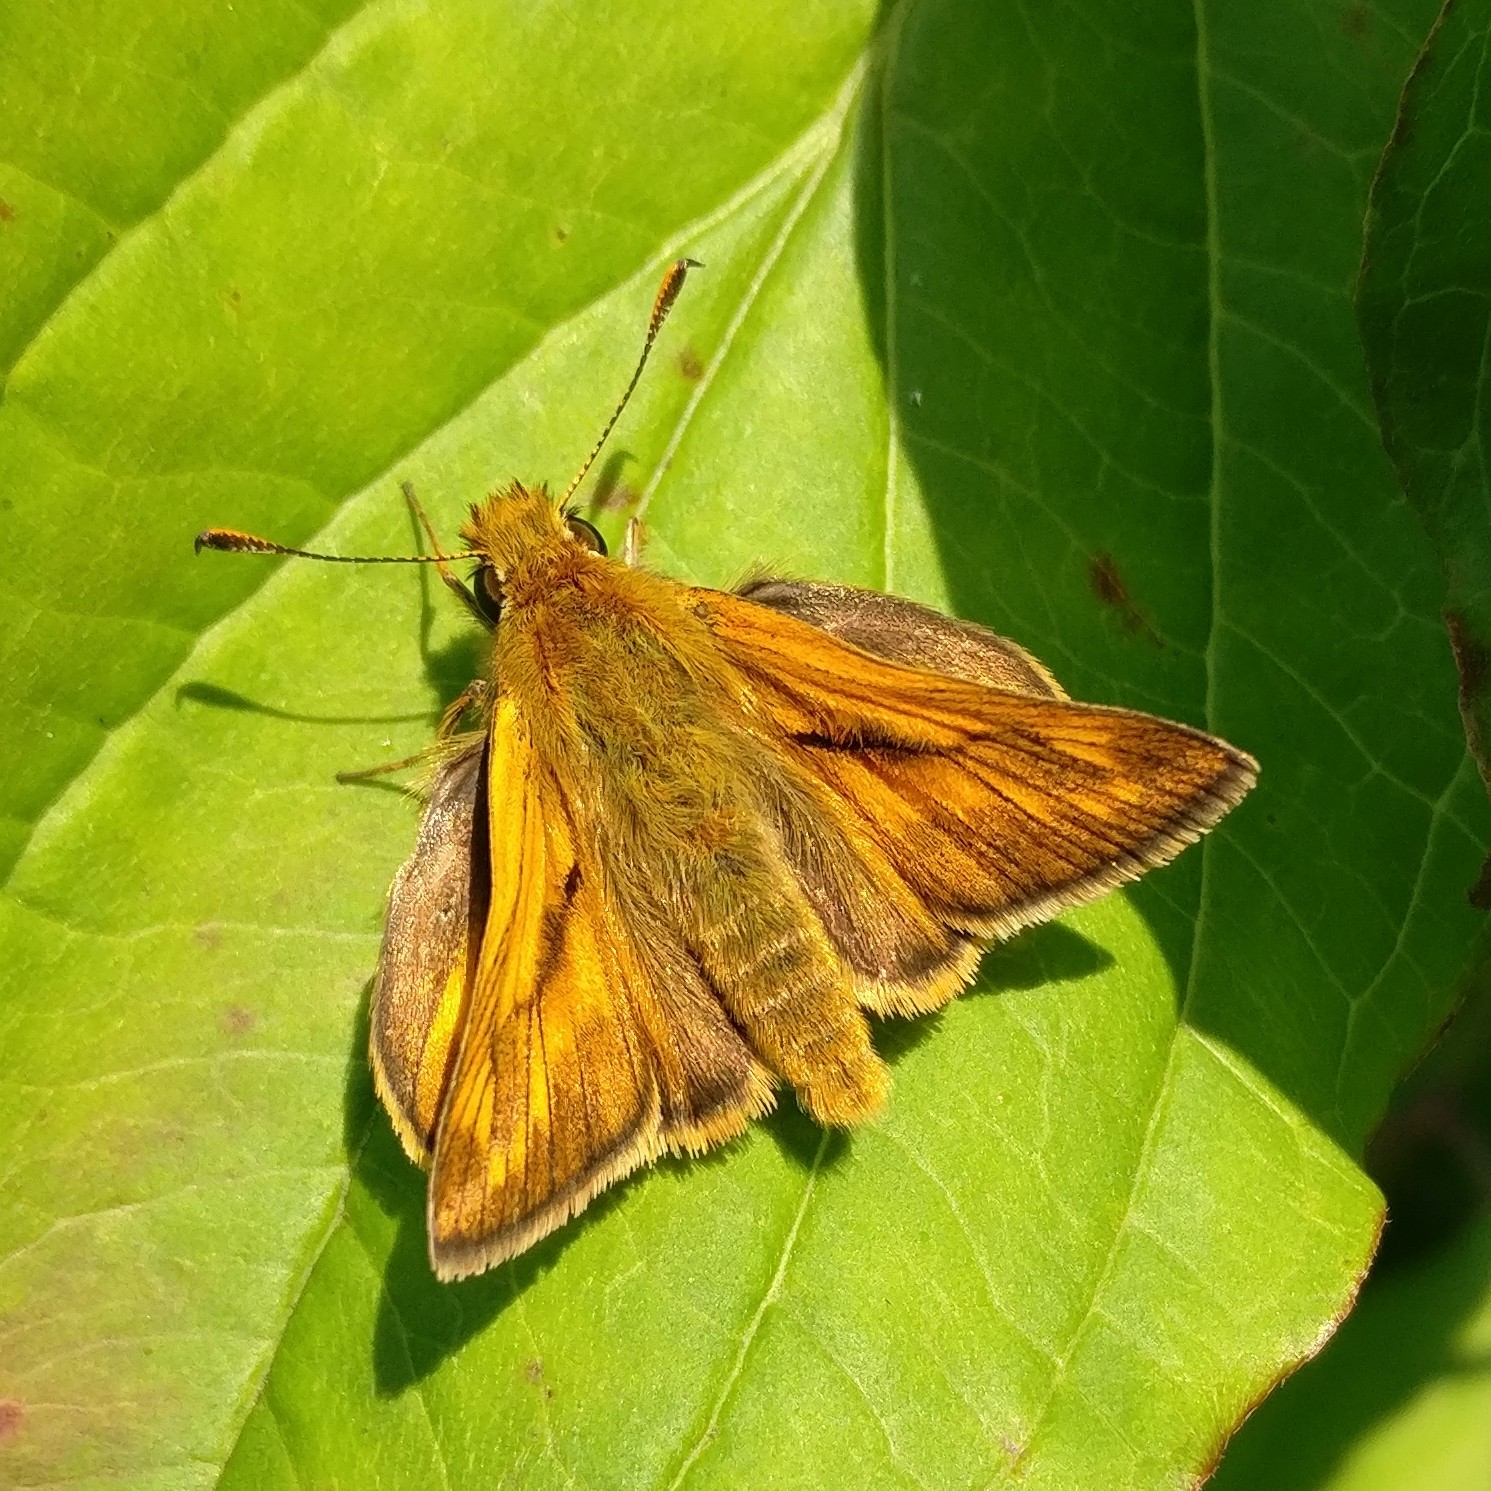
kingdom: Animalia
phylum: Arthropoda
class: Insecta
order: Lepidoptera
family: Hesperiidae
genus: Ochlodes
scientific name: Ochlodes venata
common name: Large skipper
